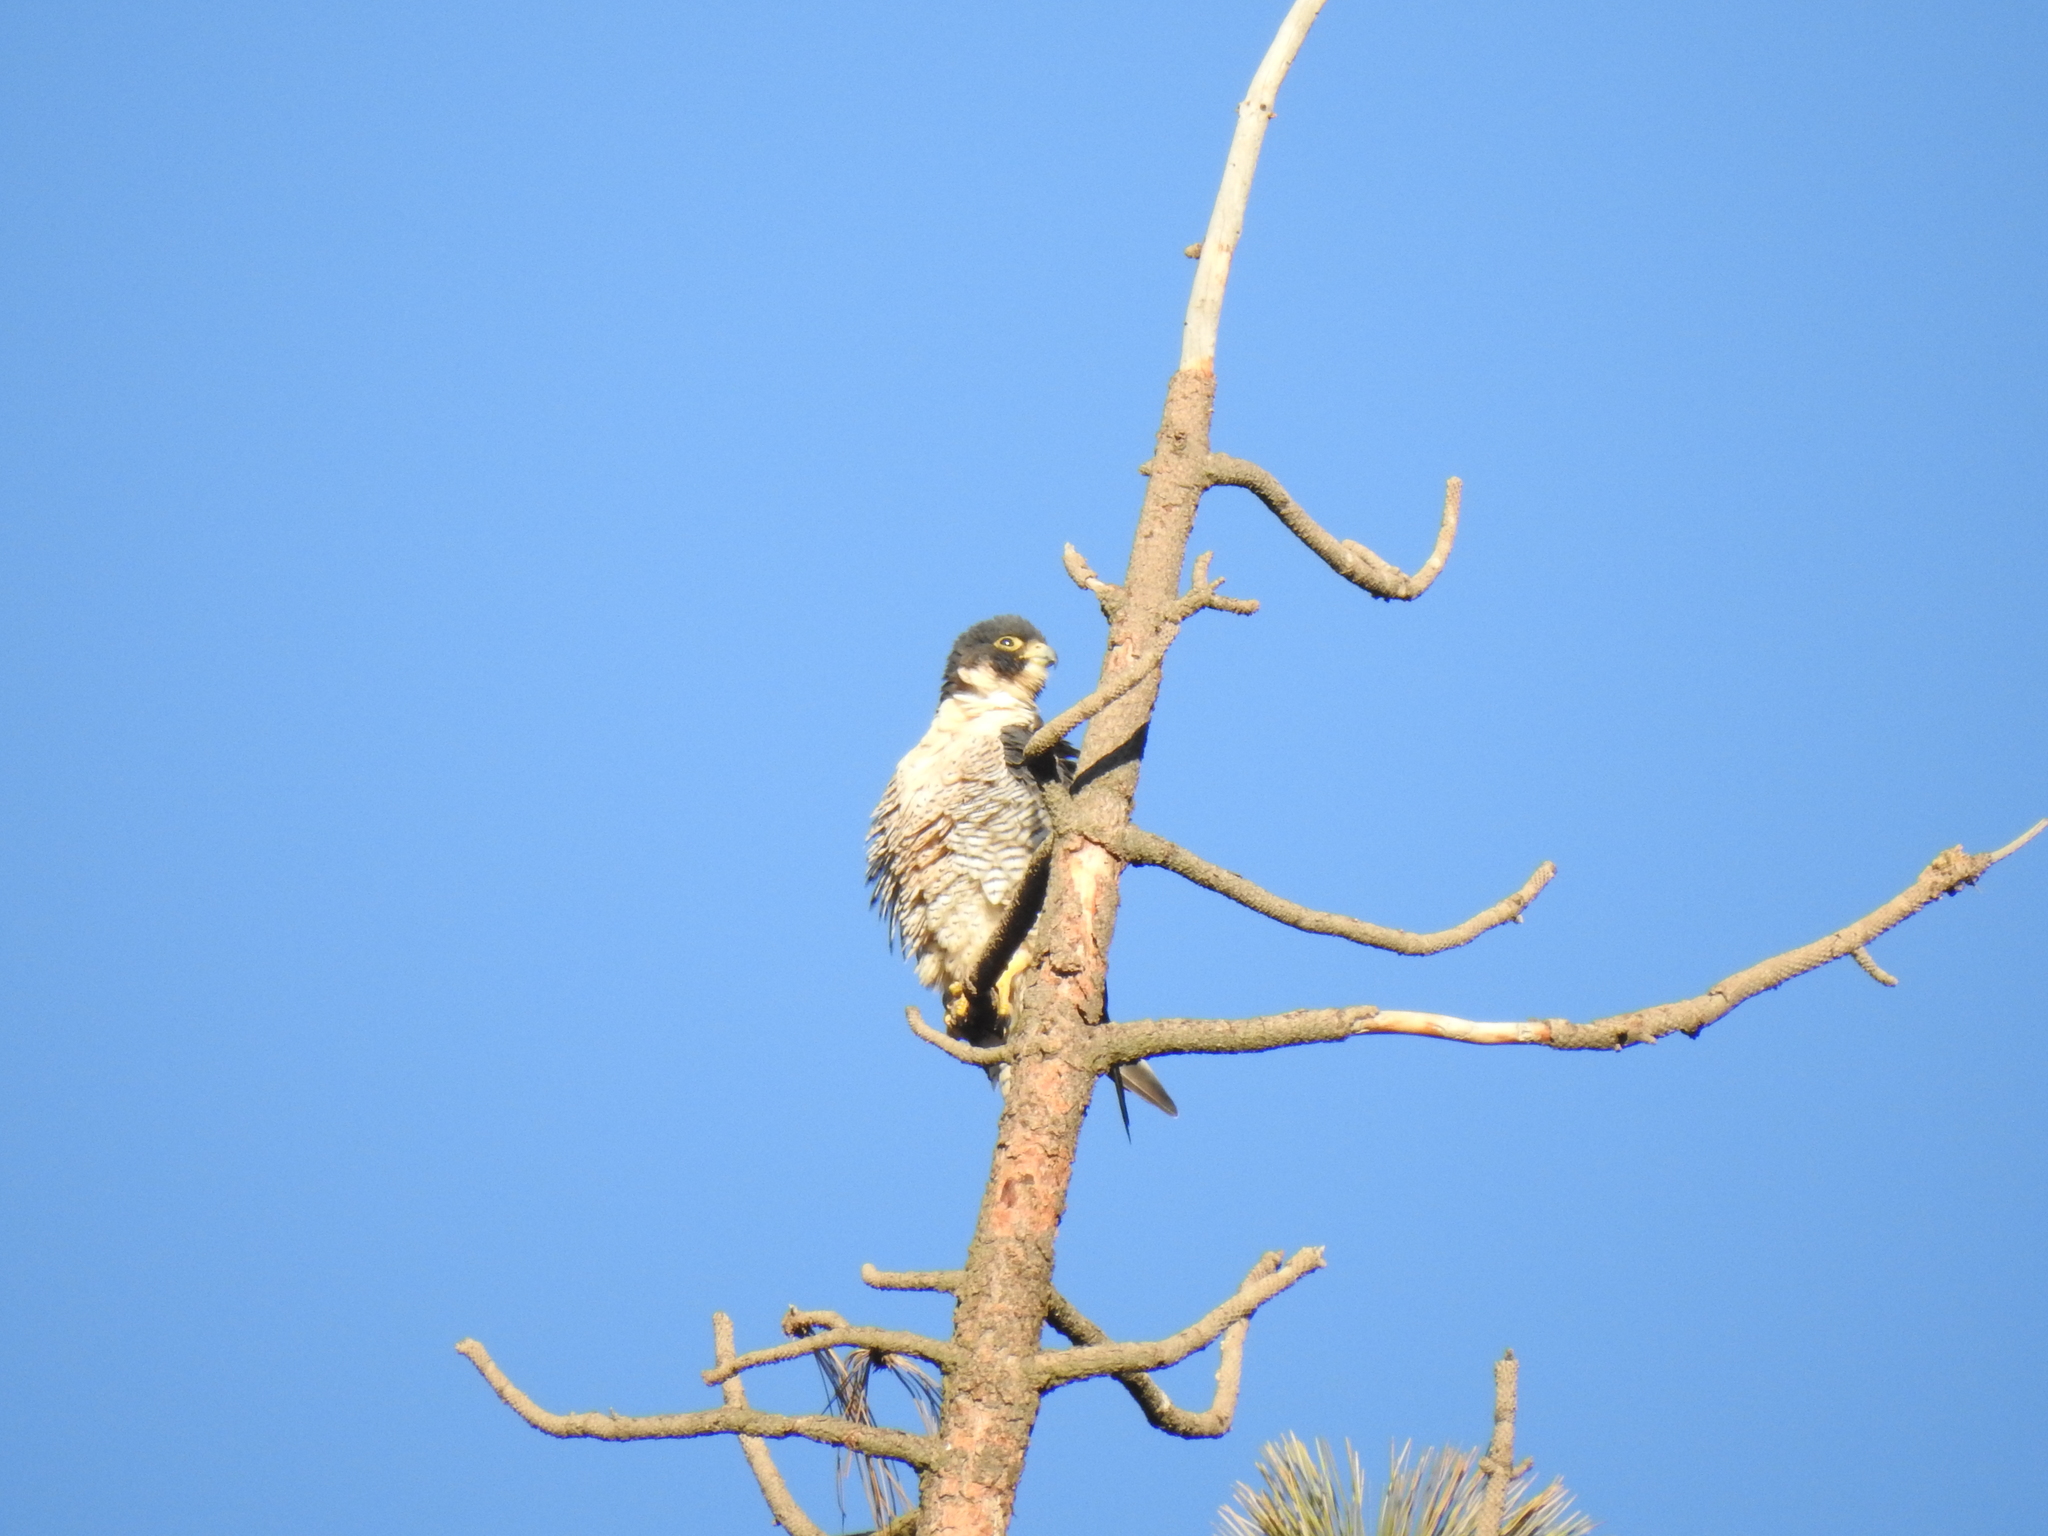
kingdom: Animalia
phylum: Chordata
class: Aves
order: Falconiformes
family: Falconidae
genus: Falco
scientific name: Falco peregrinus
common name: Peregrine falcon
